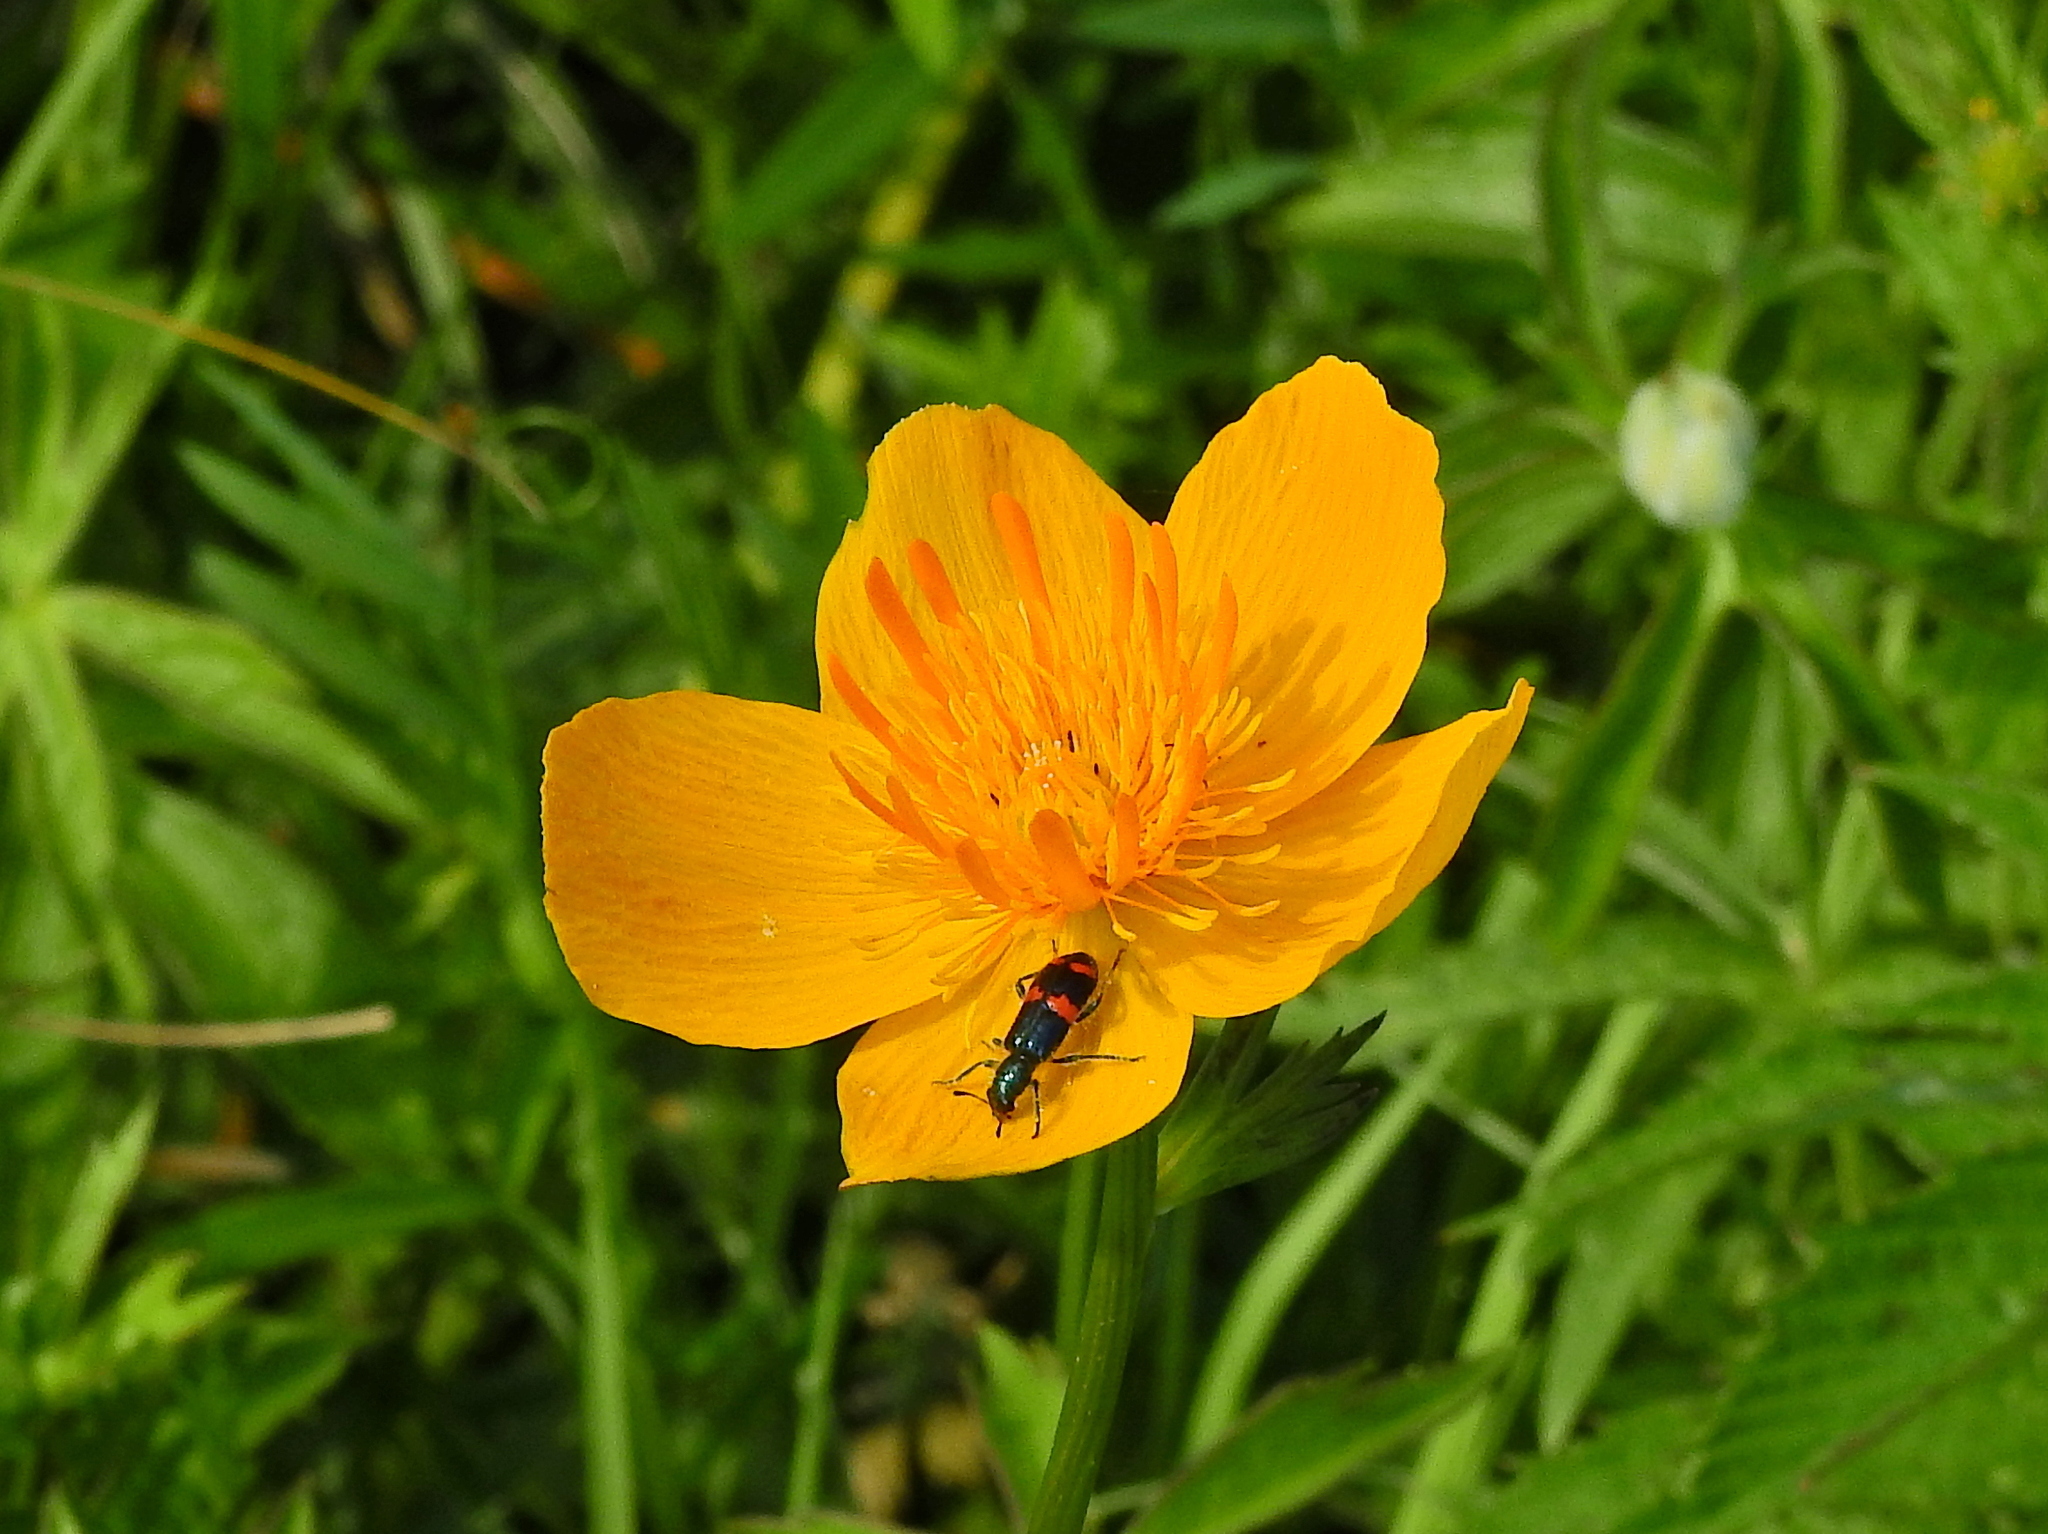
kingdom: Animalia
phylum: Arthropoda
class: Insecta
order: Coleoptera
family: Cleridae
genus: Trichodes
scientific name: Trichodes
